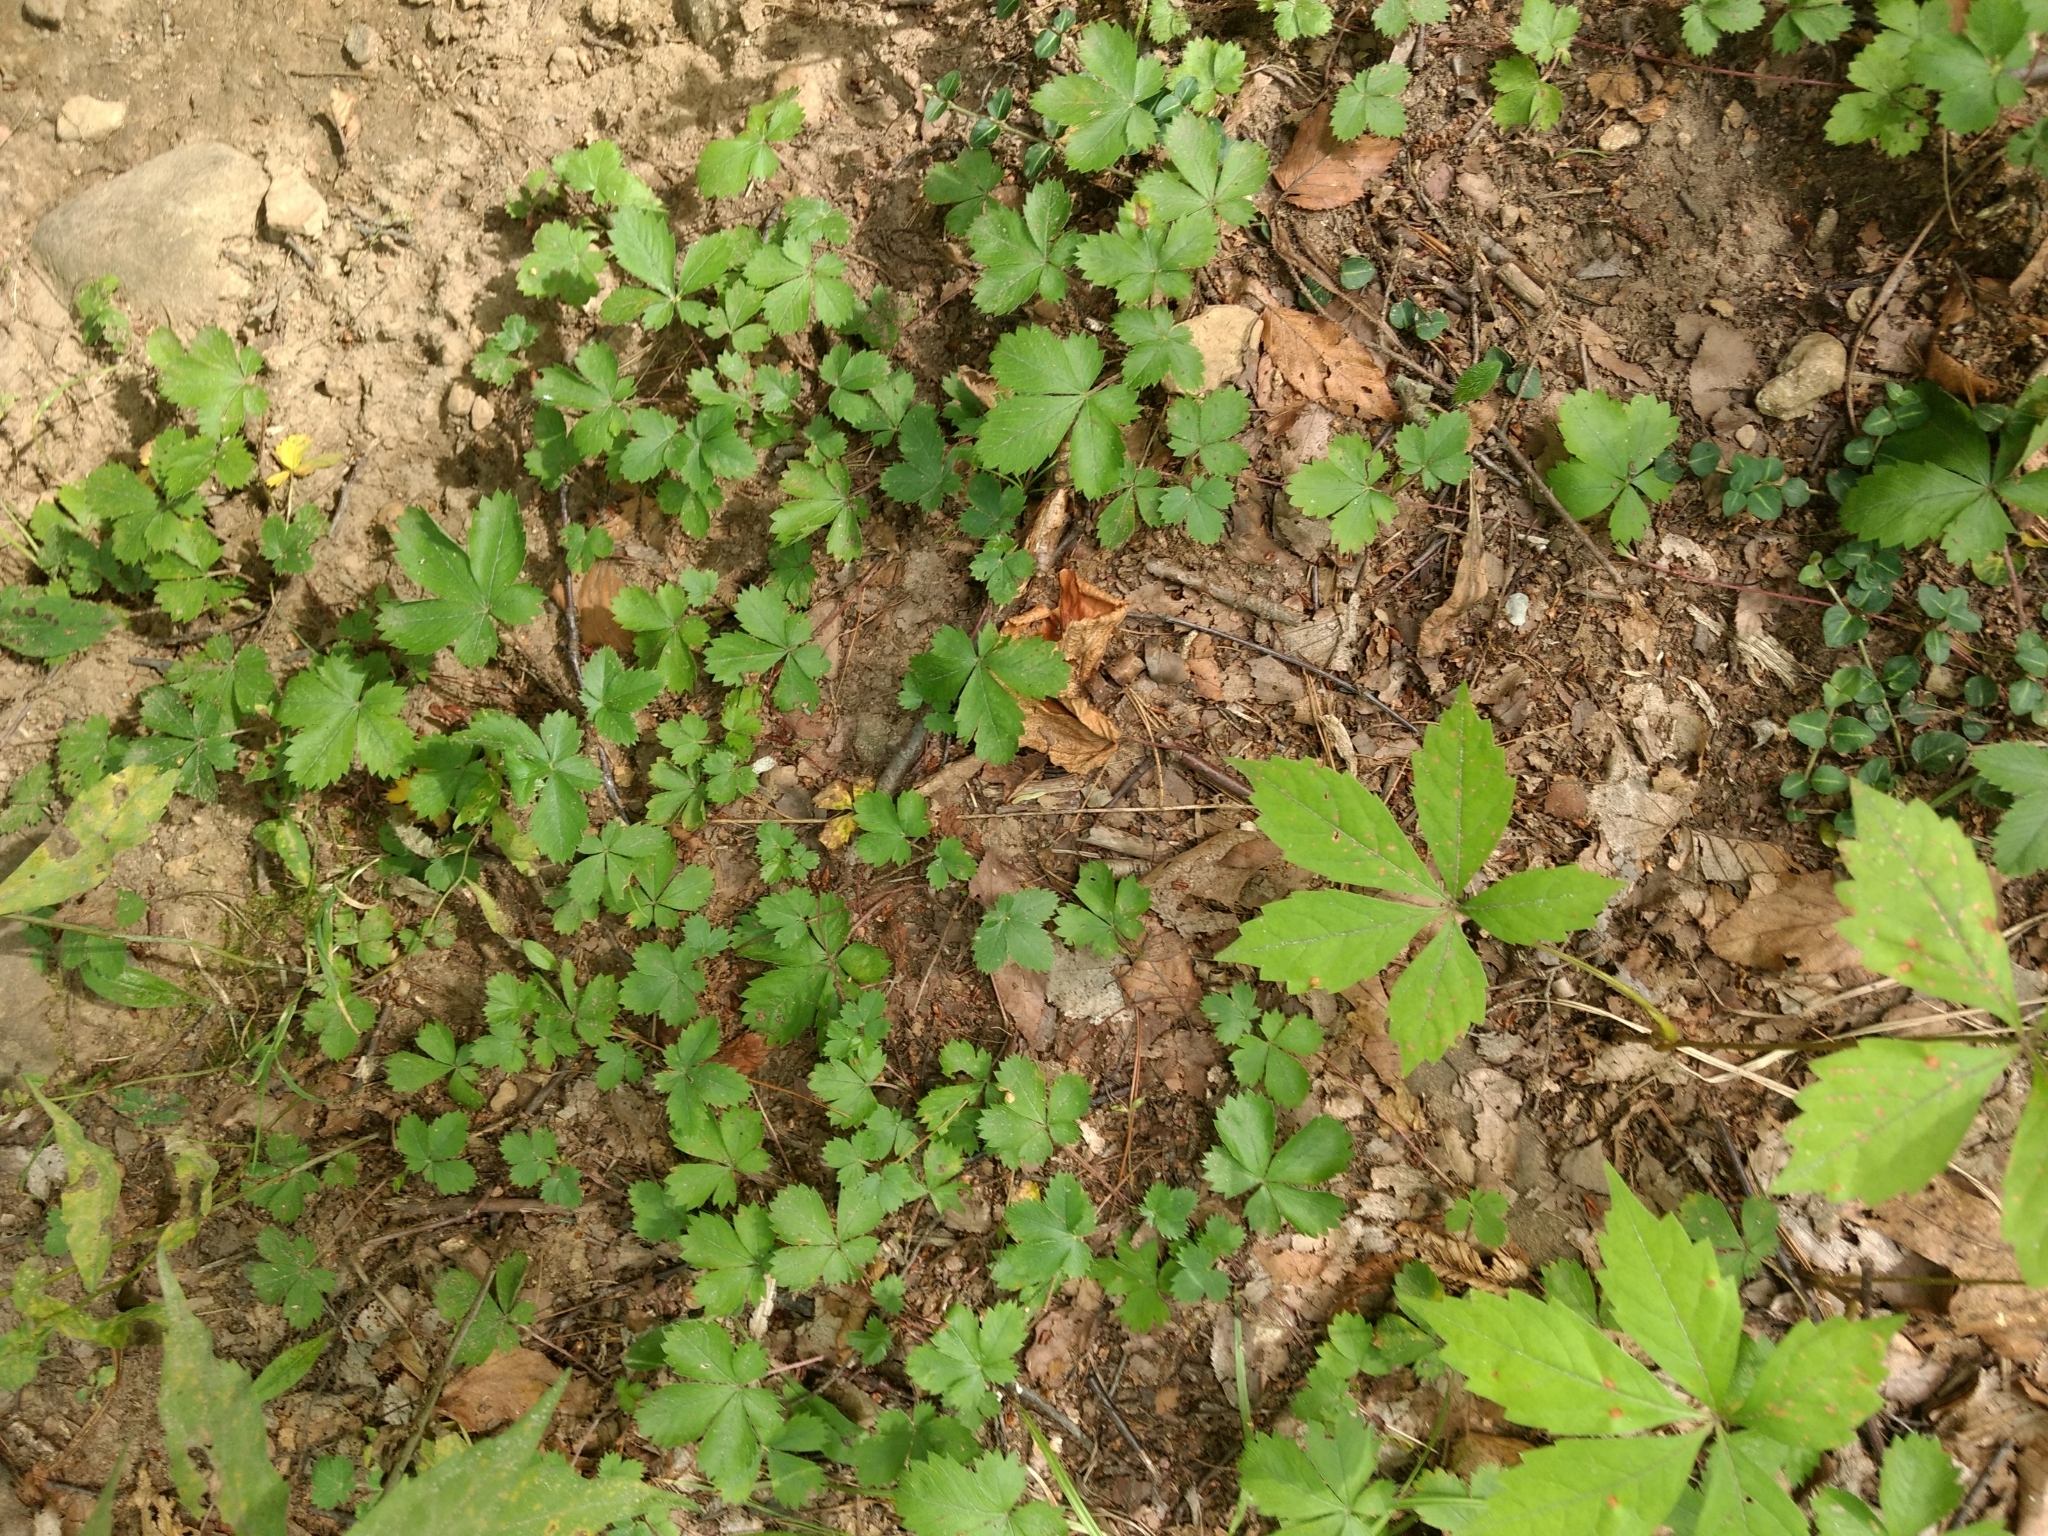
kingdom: Plantae
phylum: Tracheophyta
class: Magnoliopsida
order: Rosales
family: Rosaceae
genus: Potentilla
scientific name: Potentilla canadensis
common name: Canada cinquefoil
